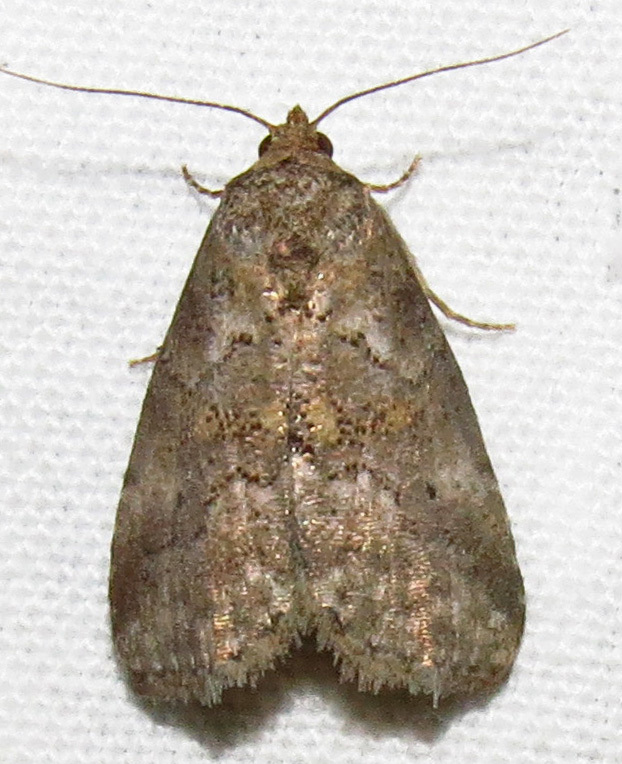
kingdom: Animalia
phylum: Arthropoda
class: Insecta
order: Lepidoptera
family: Erebidae
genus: Hyperstrotia
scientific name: Hyperstrotia nana
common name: White-lined graylet
